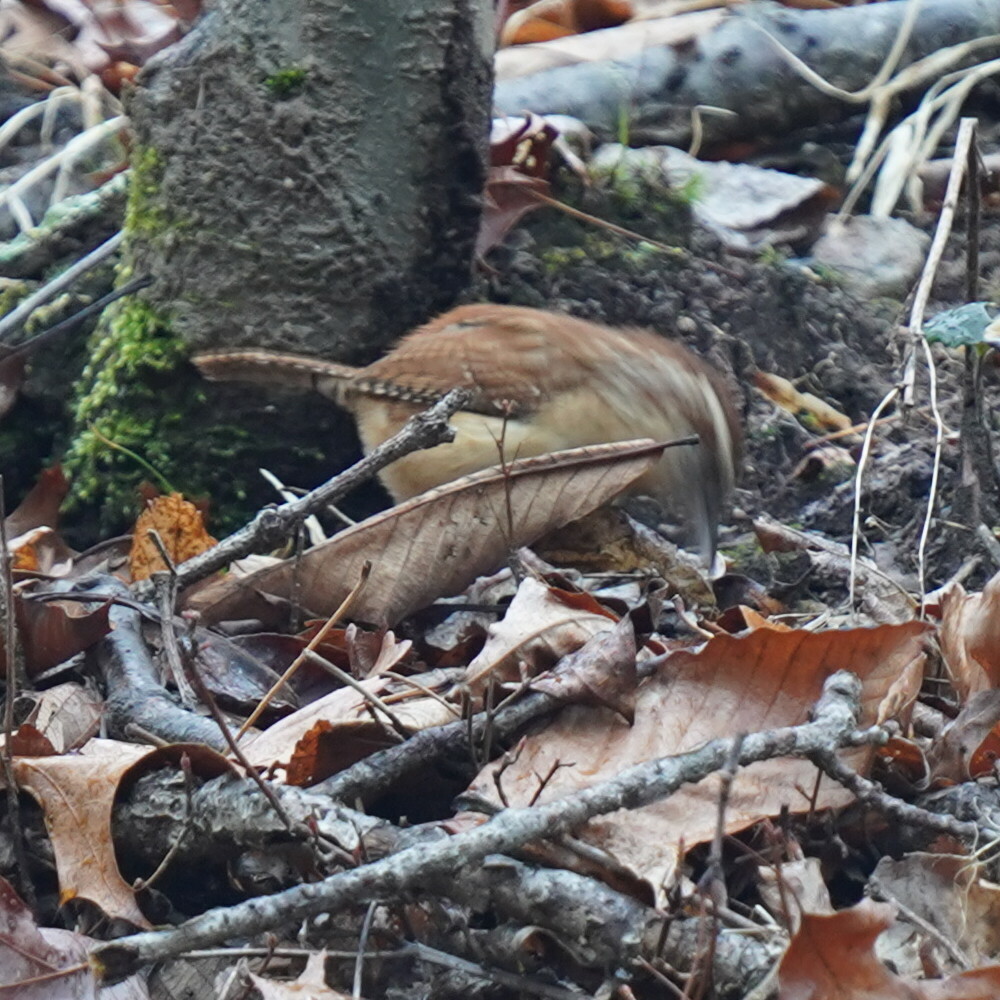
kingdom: Animalia
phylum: Chordata
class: Aves
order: Passeriformes
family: Troglodytidae
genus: Thryothorus
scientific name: Thryothorus ludovicianus
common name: Carolina wren
